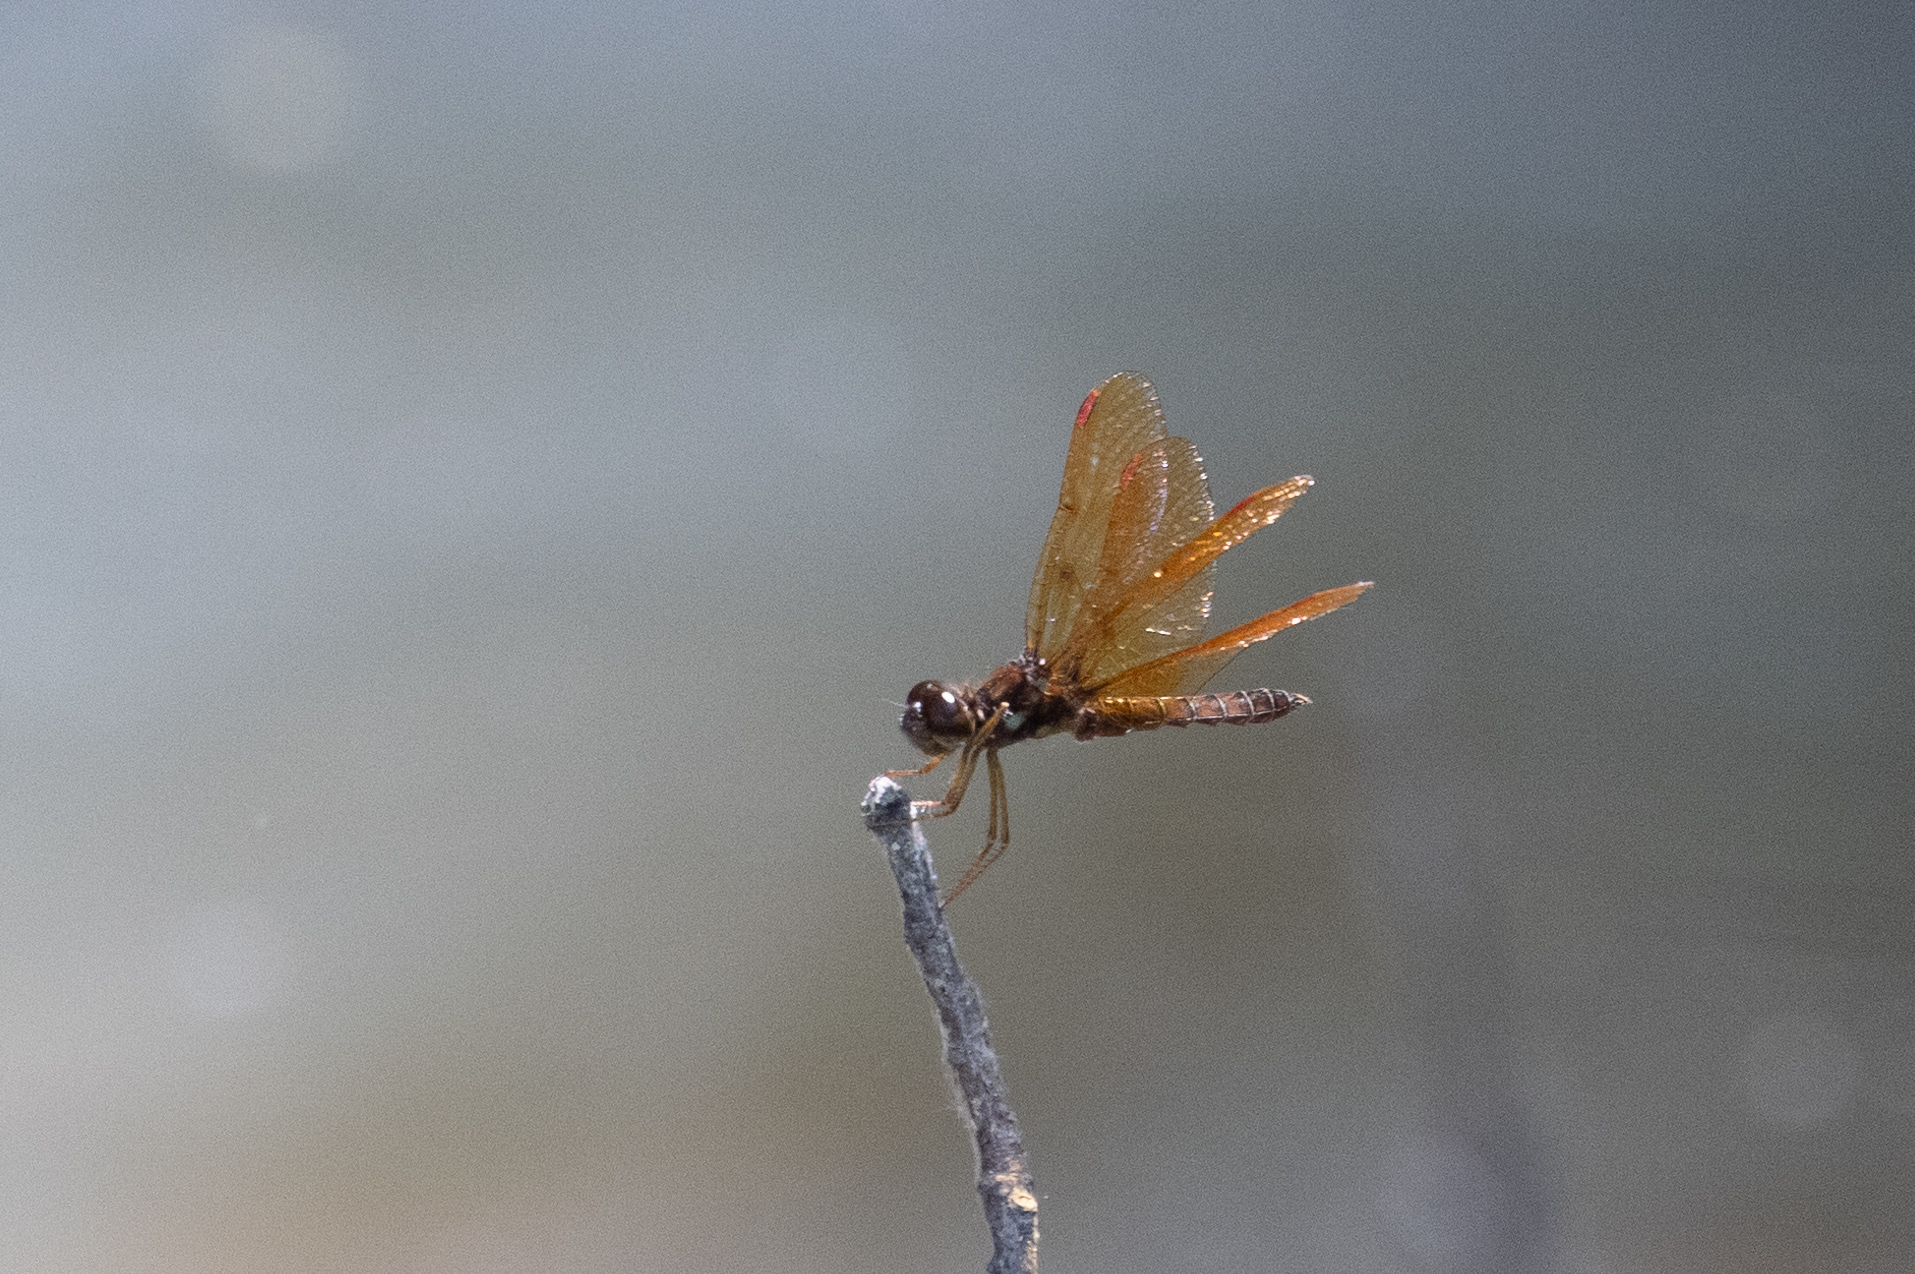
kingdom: Animalia
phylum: Arthropoda
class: Insecta
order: Odonata
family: Libellulidae
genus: Perithemis
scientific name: Perithemis tenera
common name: Eastern amberwing
